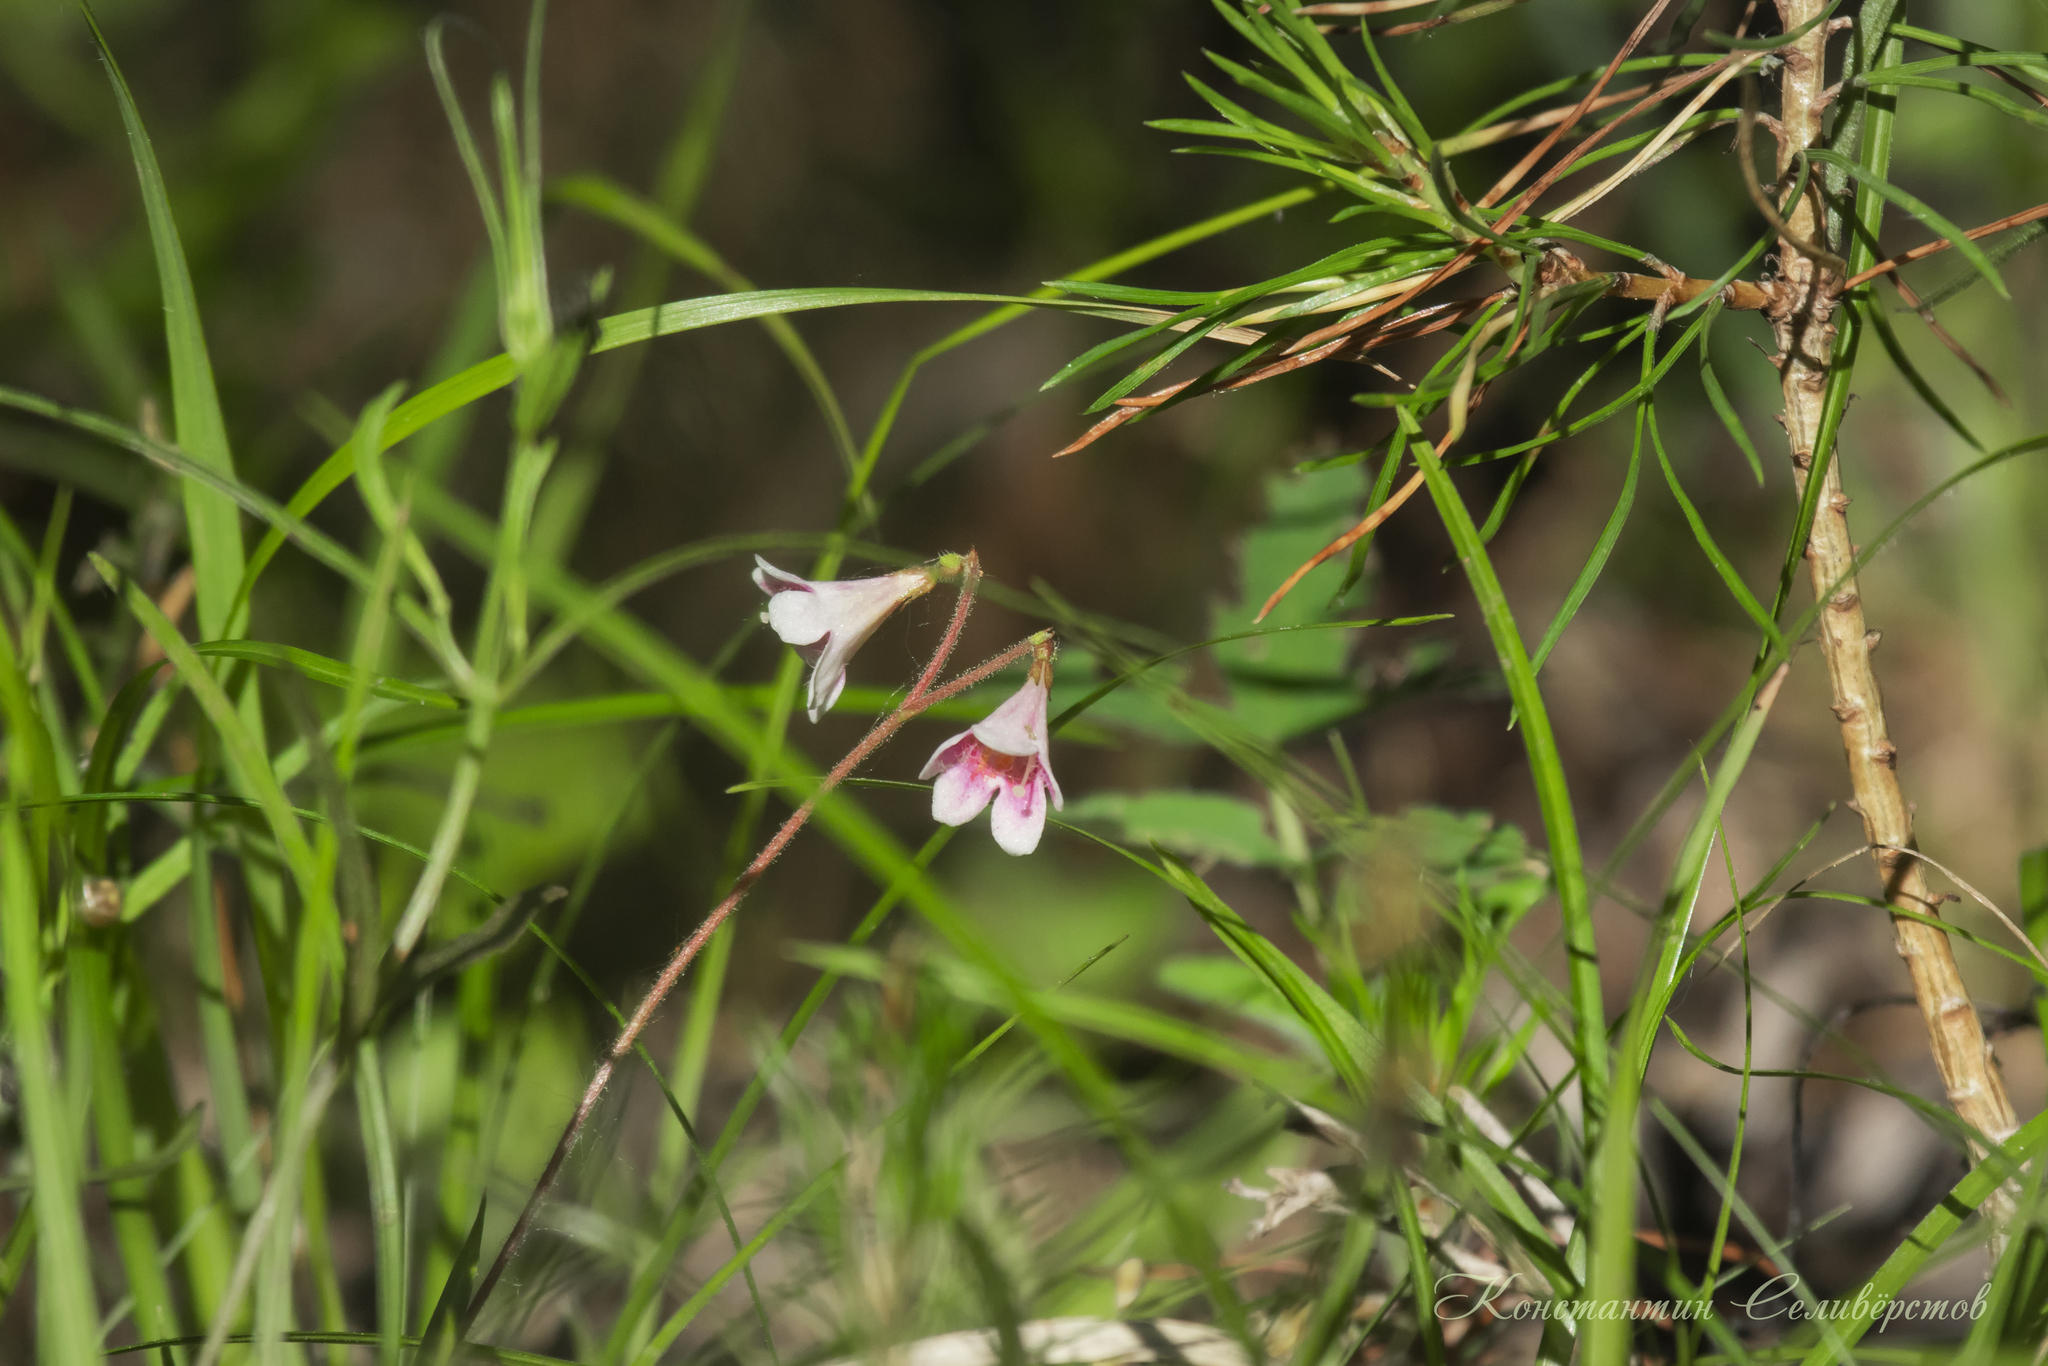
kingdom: Plantae
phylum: Tracheophyta
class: Magnoliopsida
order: Dipsacales
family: Caprifoliaceae
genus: Linnaea
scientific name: Linnaea borealis
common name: Twinflower
